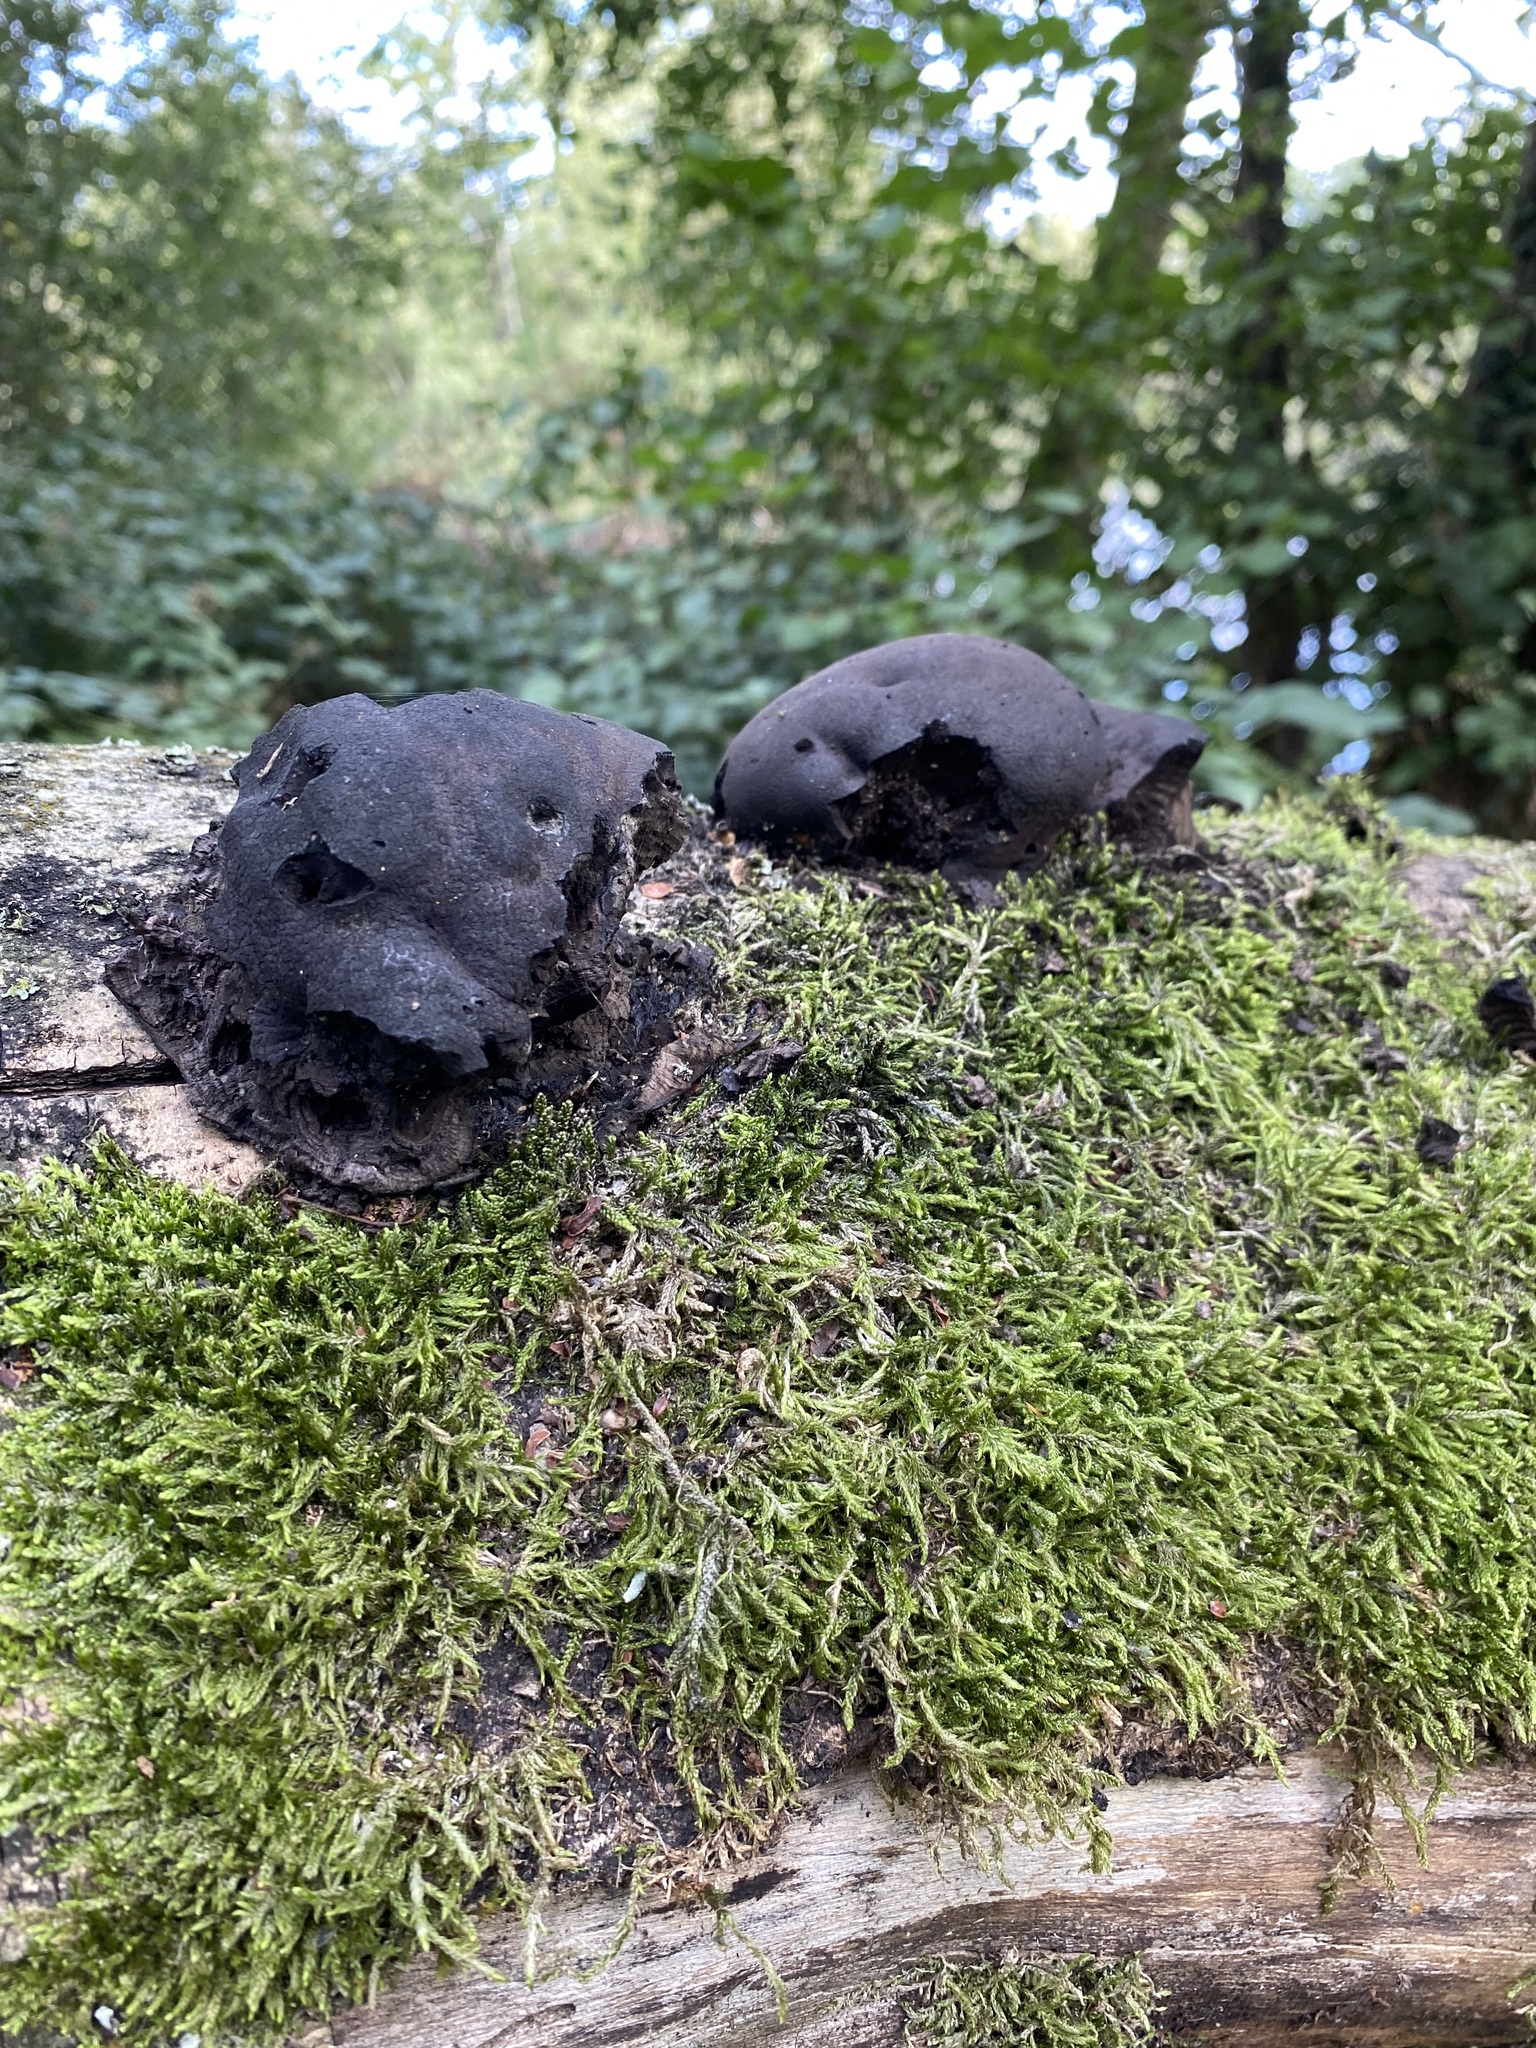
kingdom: Fungi
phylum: Ascomycota
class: Sordariomycetes
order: Xylariales
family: Hypoxylaceae
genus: Daldinia
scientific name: Daldinia concentrica
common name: Cramp balls
